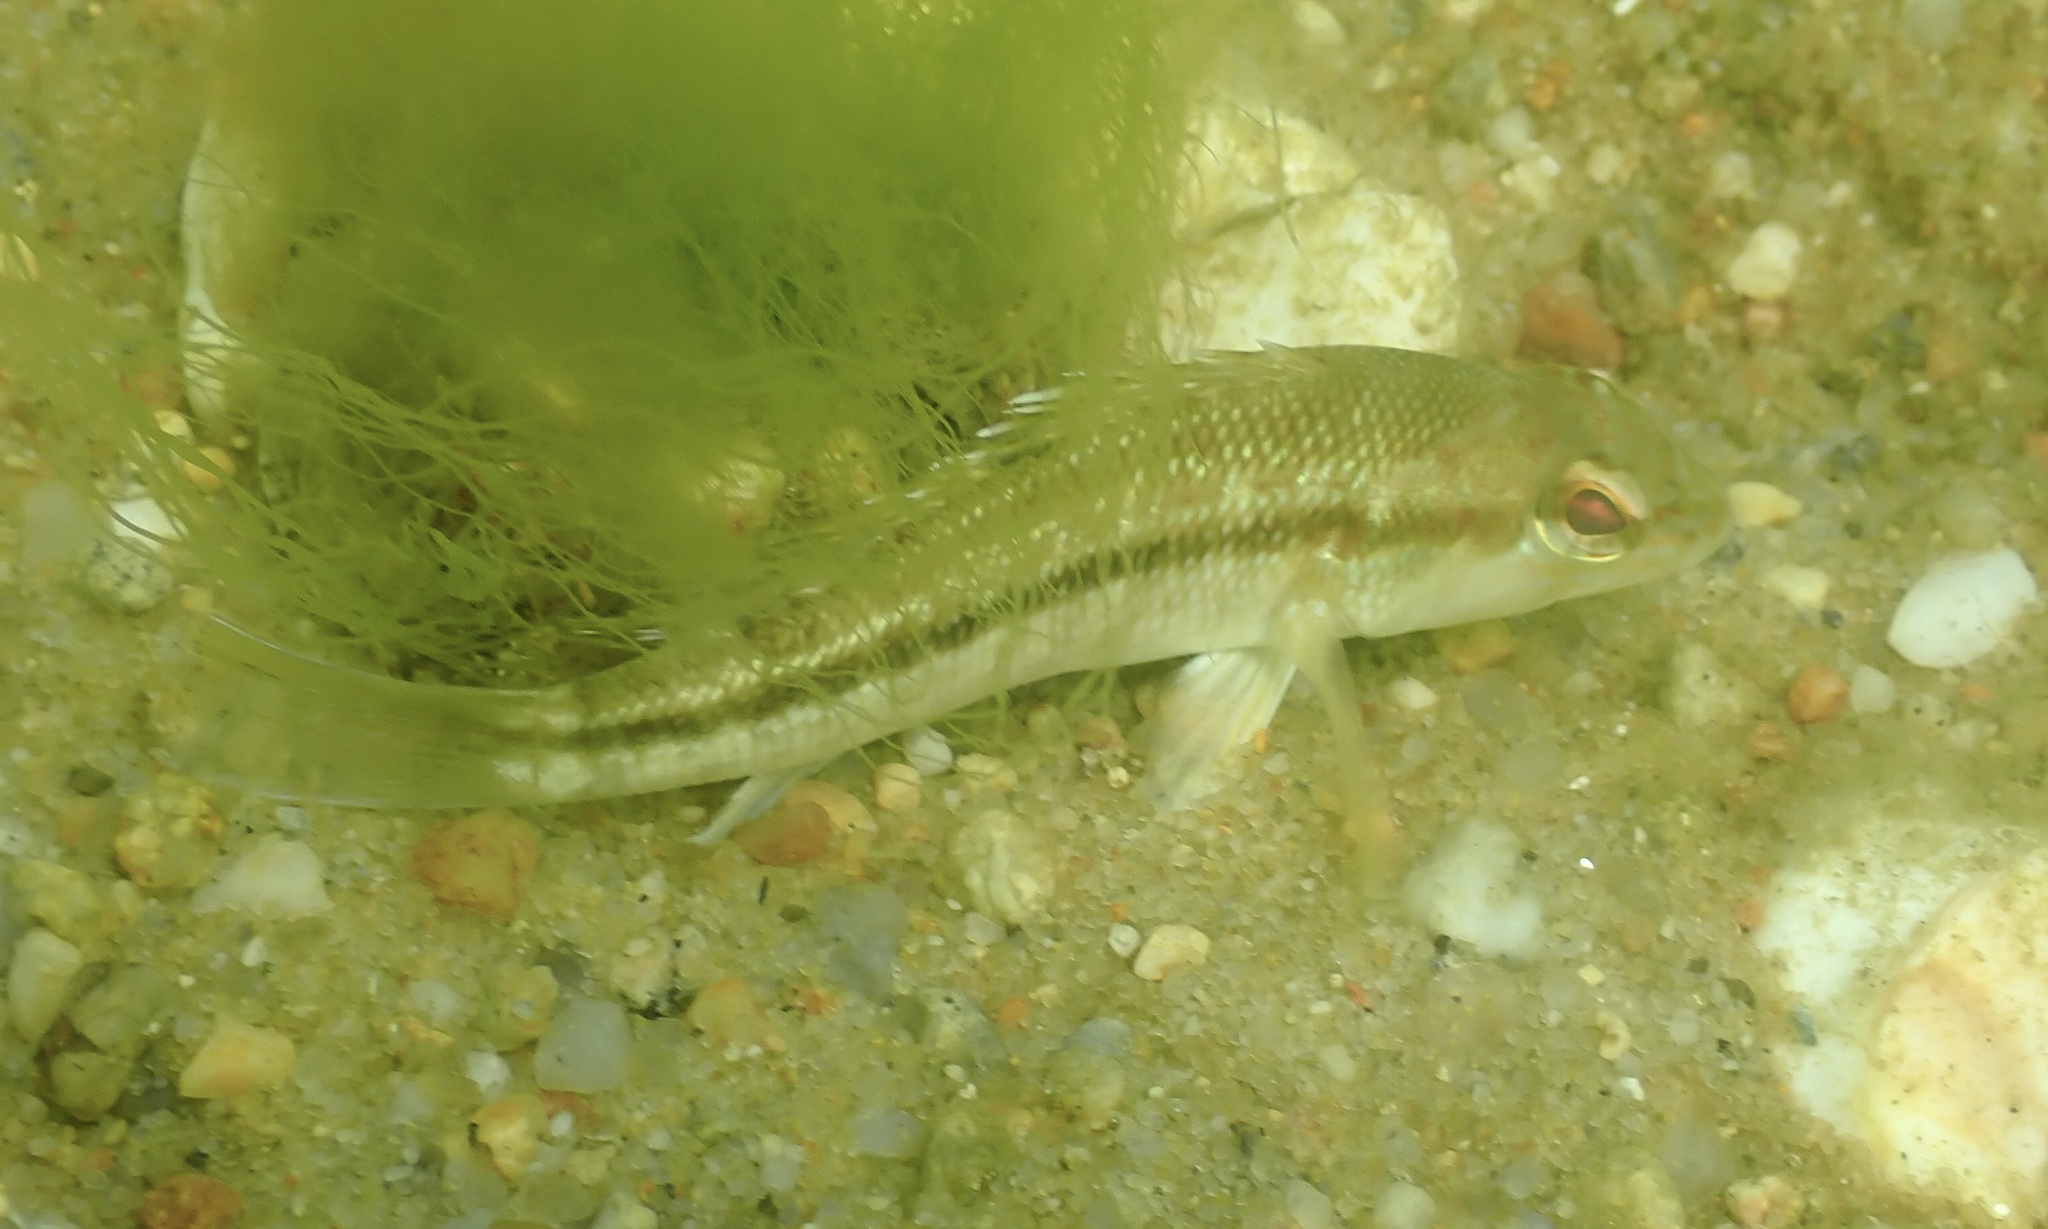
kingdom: Animalia
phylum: Chordata
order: Perciformes
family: Serranidae
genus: Centropristis
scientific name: Centropristis striata
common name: Black sea bass
